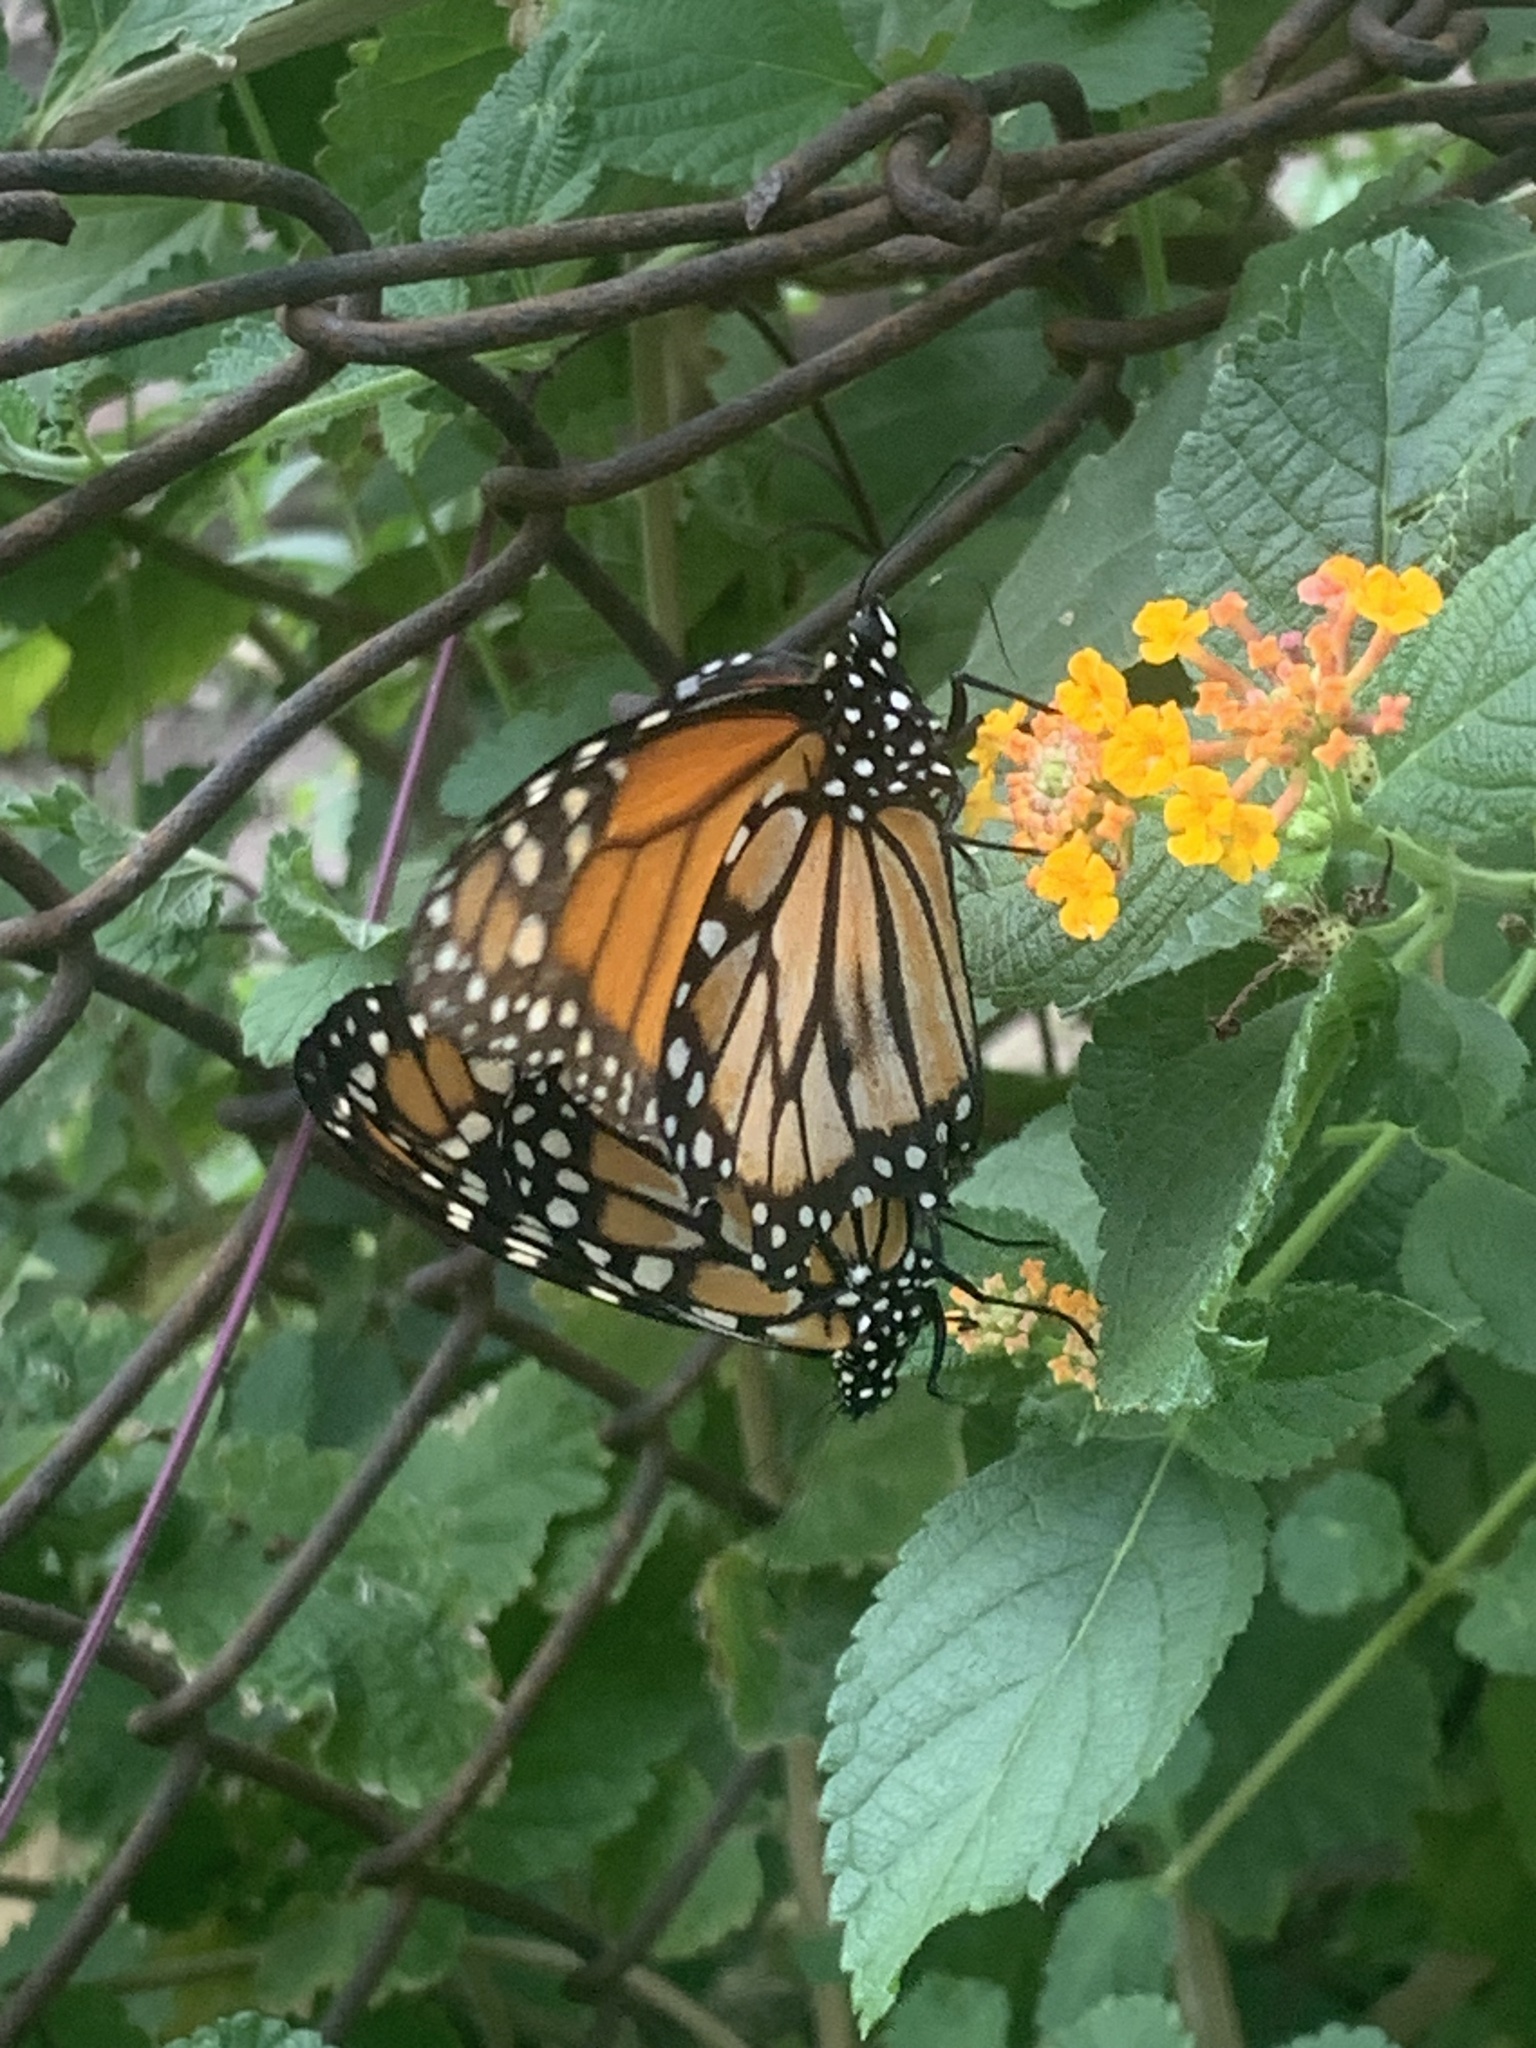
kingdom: Animalia
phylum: Arthropoda
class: Insecta
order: Lepidoptera
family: Nymphalidae
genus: Danaus
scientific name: Danaus erippus
